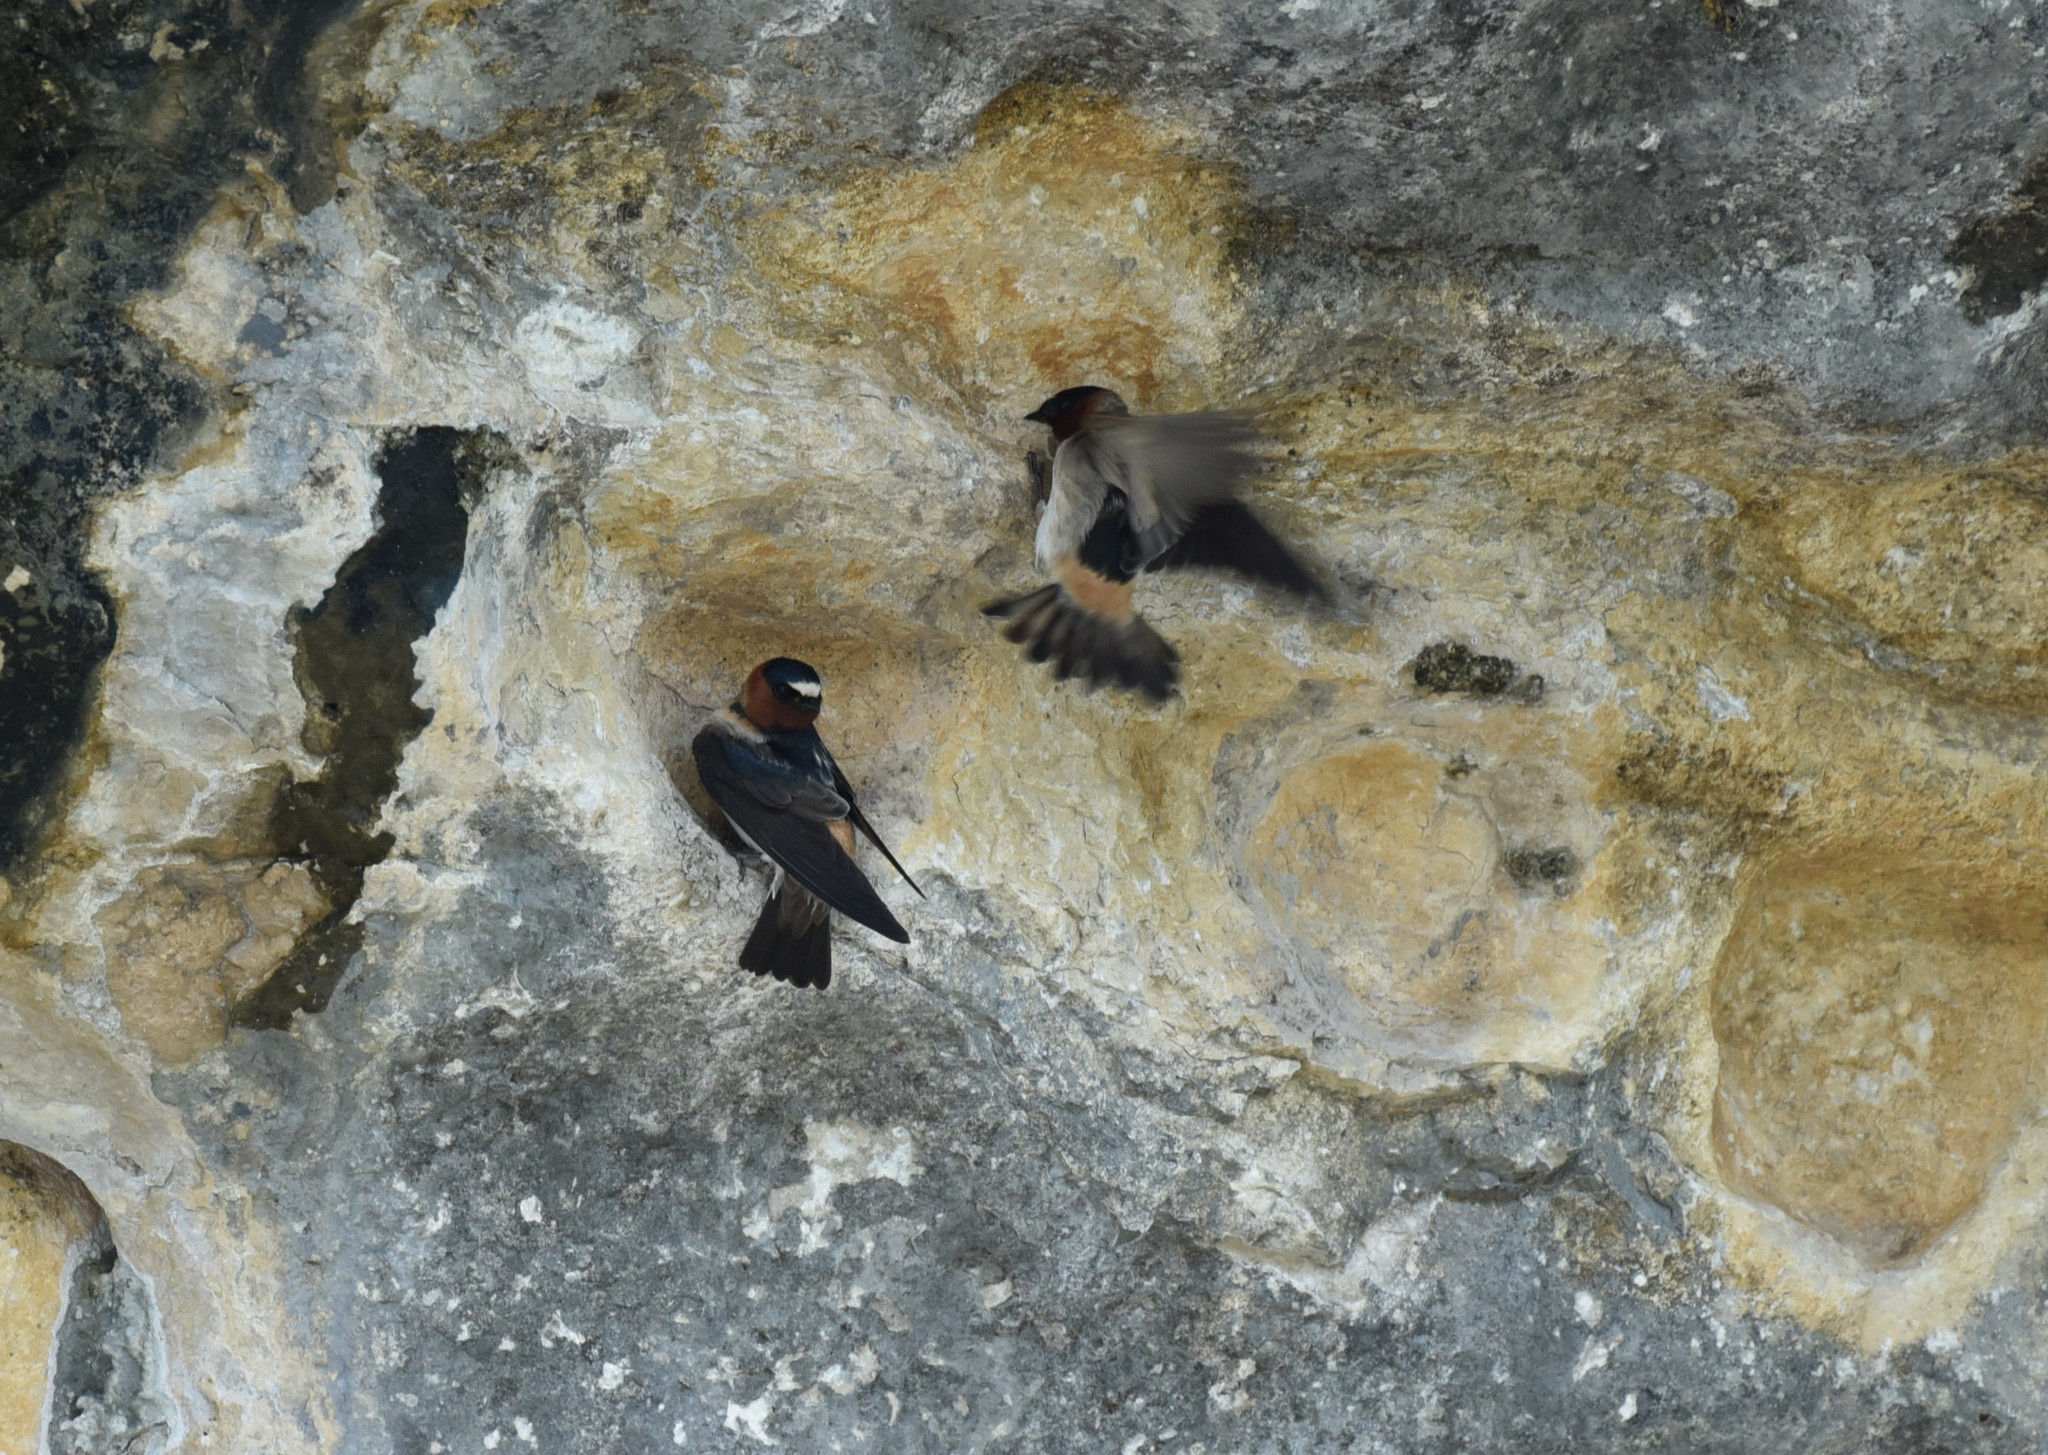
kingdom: Animalia
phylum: Chordata
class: Aves
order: Passeriformes
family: Hirundinidae
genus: Petrochelidon
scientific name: Petrochelidon pyrrhonota
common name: American cliff swallow
